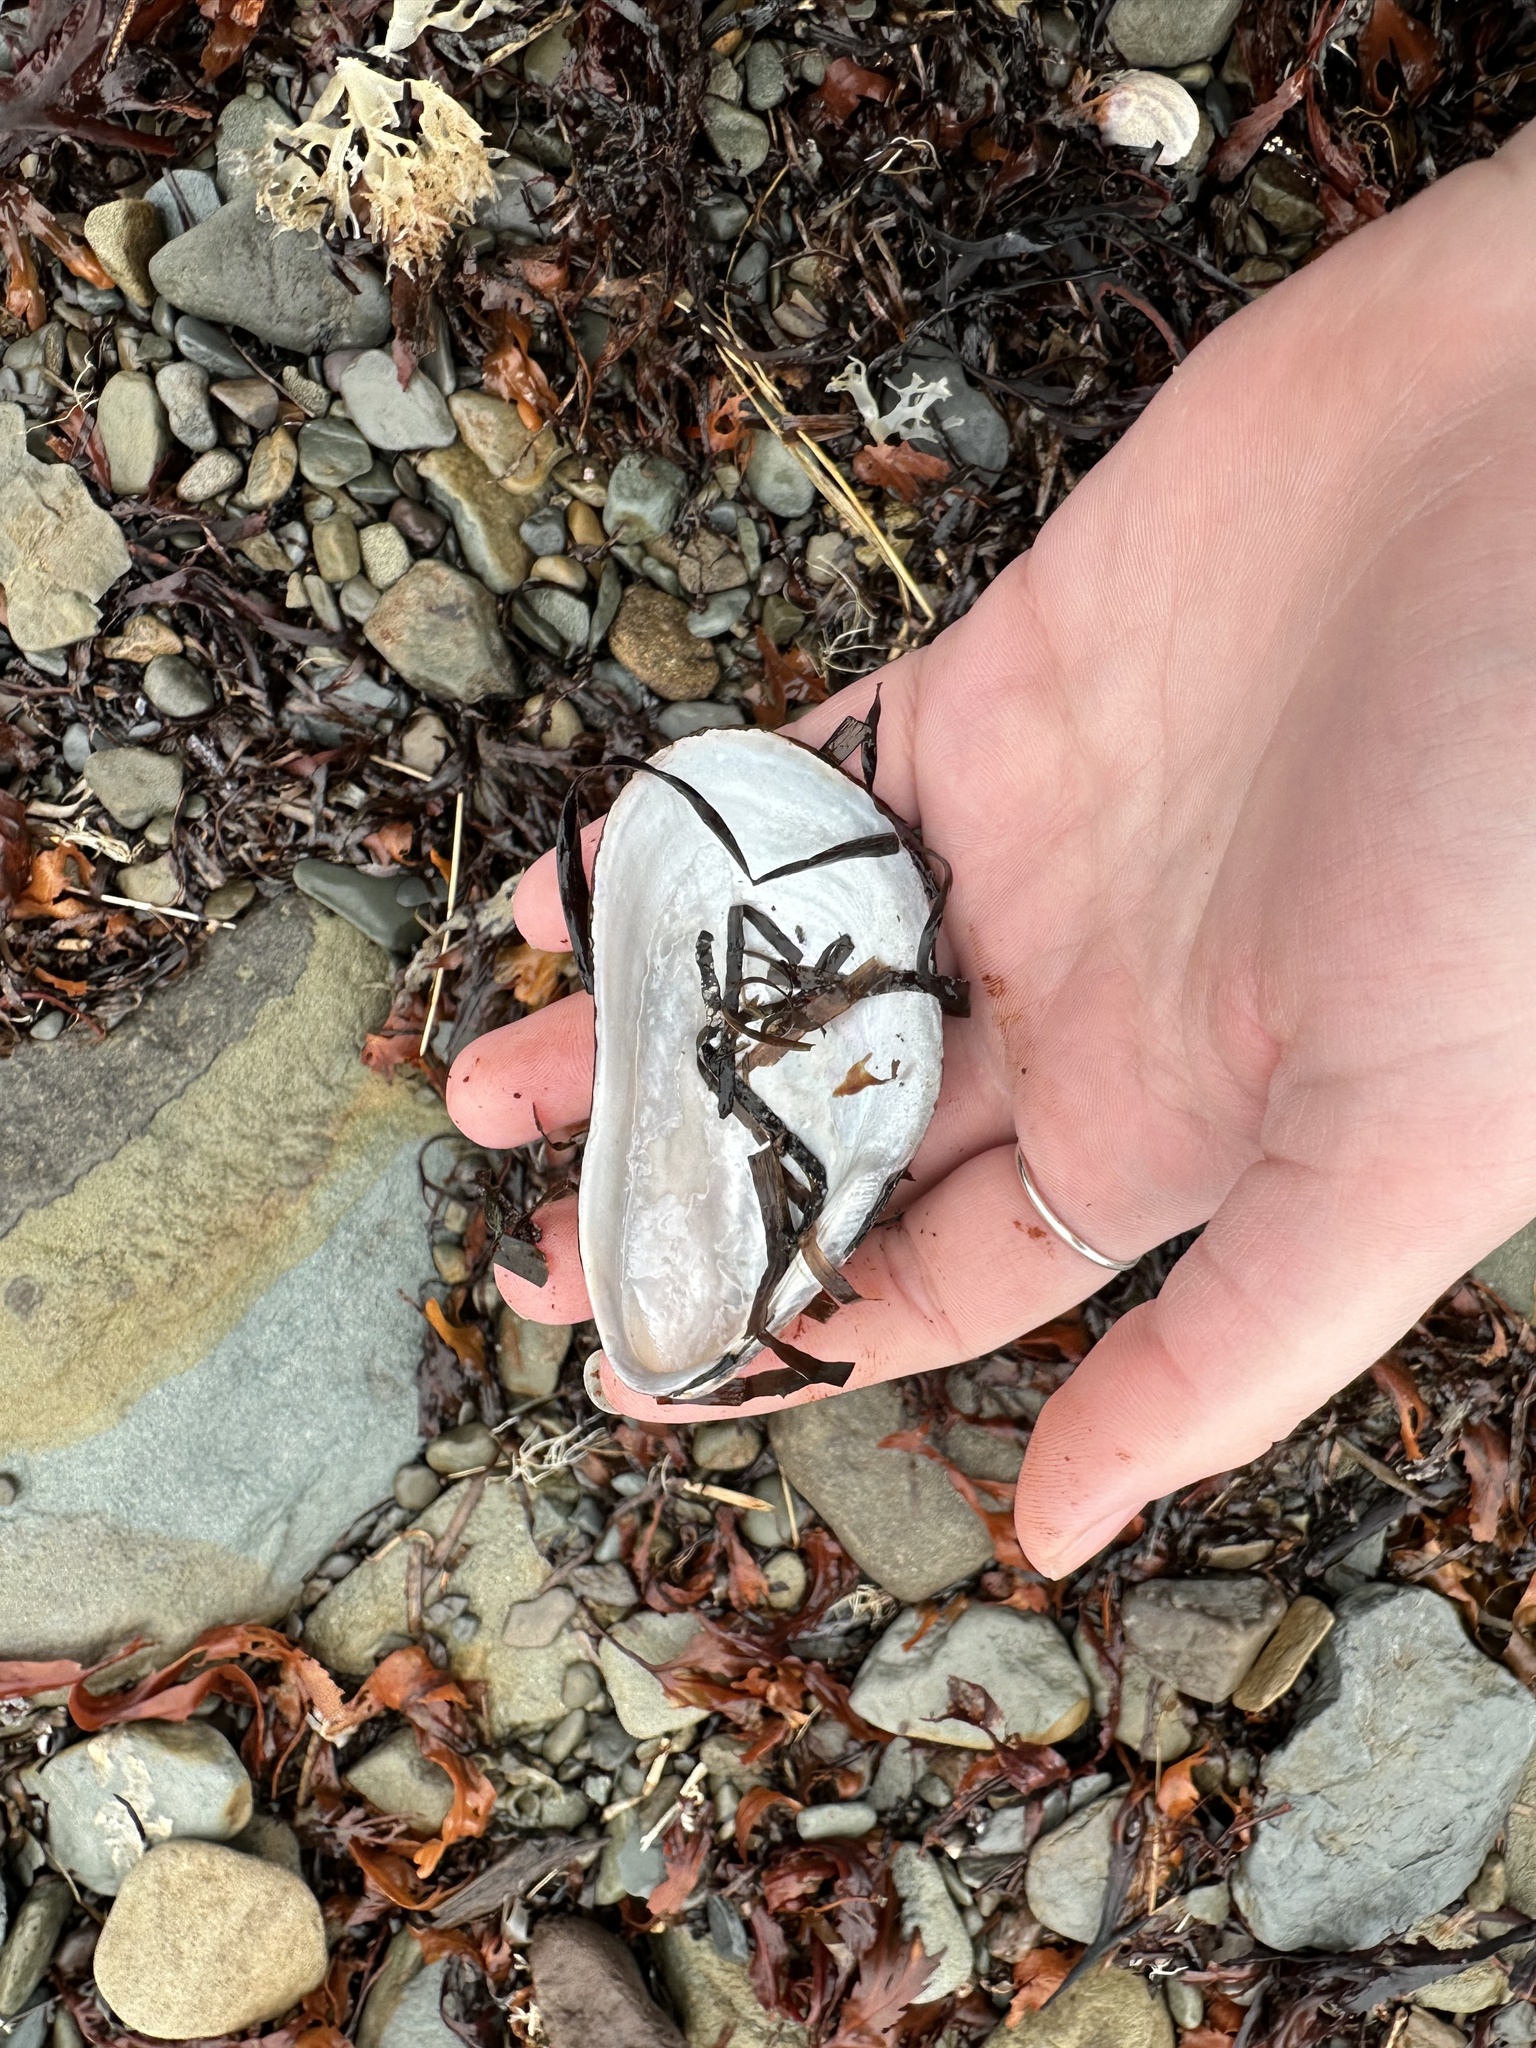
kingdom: Animalia
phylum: Mollusca
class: Bivalvia
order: Mytilida
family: Mytilidae
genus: Modiolus
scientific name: Modiolus modiolus
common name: Horse-mussel
